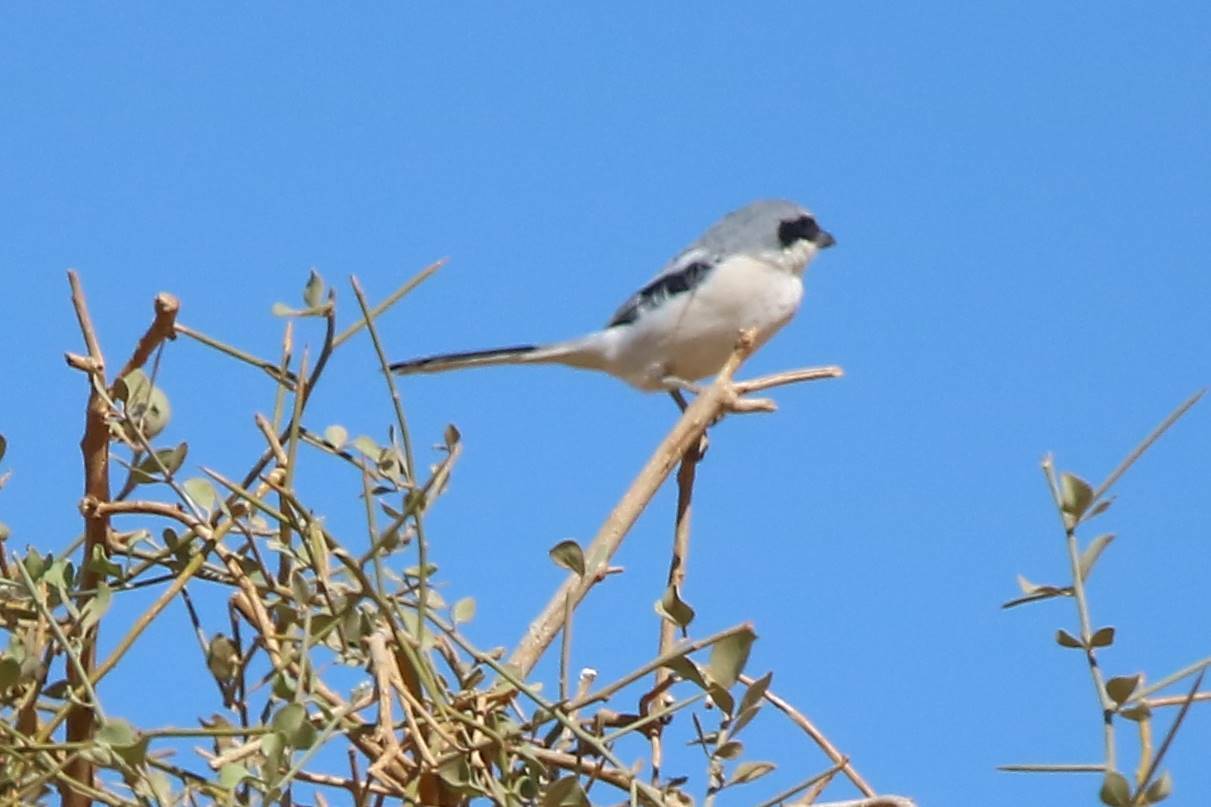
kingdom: Animalia
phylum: Chordata
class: Aves
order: Passeriformes
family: Laniidae
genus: Lanius
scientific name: Lanius excubitor
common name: Great grey shrike
